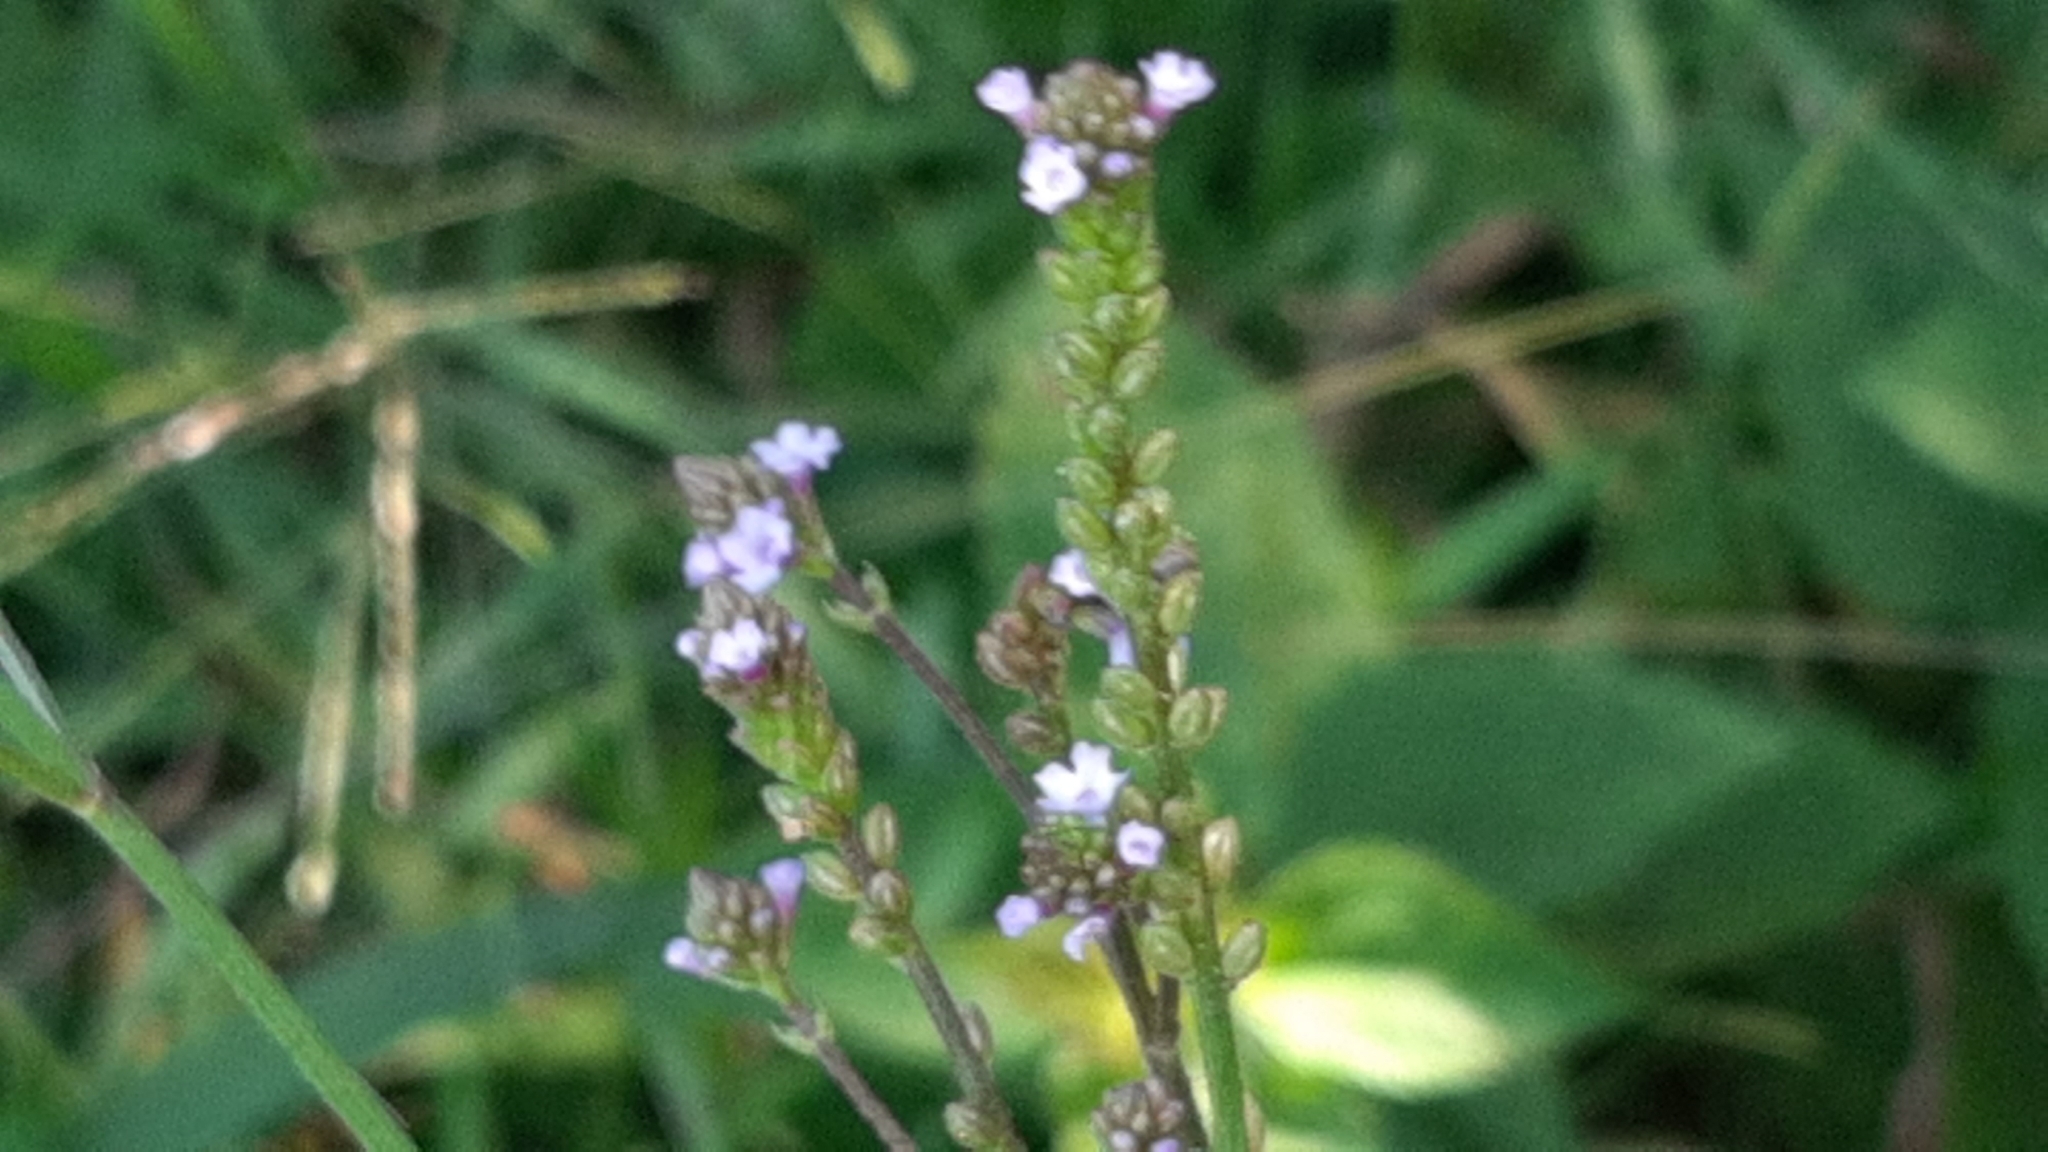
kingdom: Plantae
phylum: Tracheophyta
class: Magnoliopsida
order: Lamiales
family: Verbenaceae
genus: Verbena
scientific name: Verbena litoralis
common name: Seashore vervain
